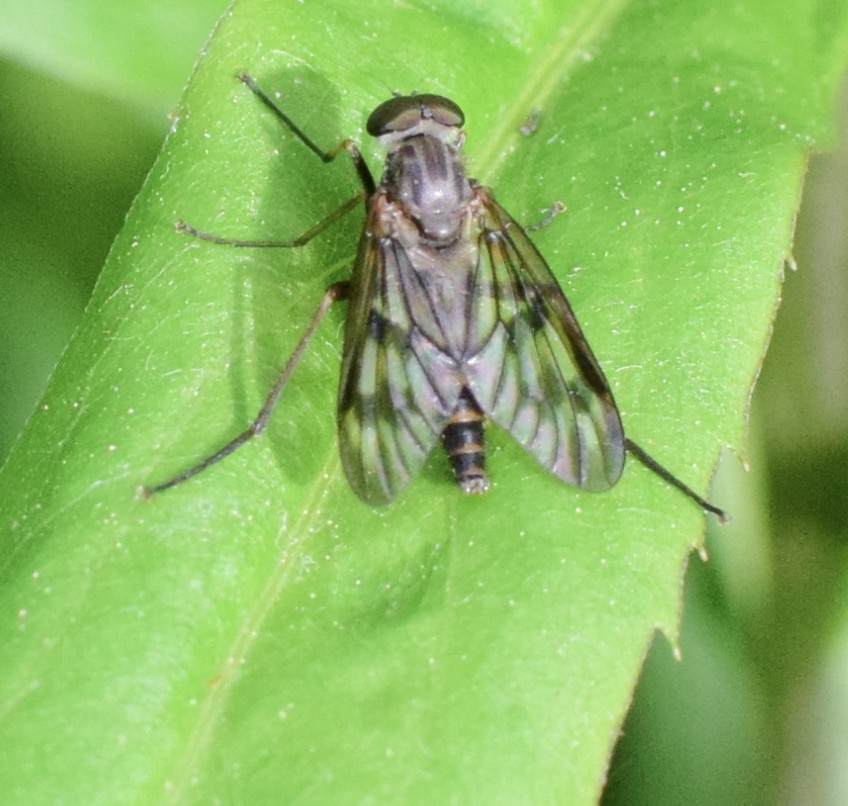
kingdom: Animalia
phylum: Arthropoda
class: Insecta
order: Diptera
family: Rhagionidae
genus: Rhagio
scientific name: Rhagio mystaceus
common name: Common snipe fly
